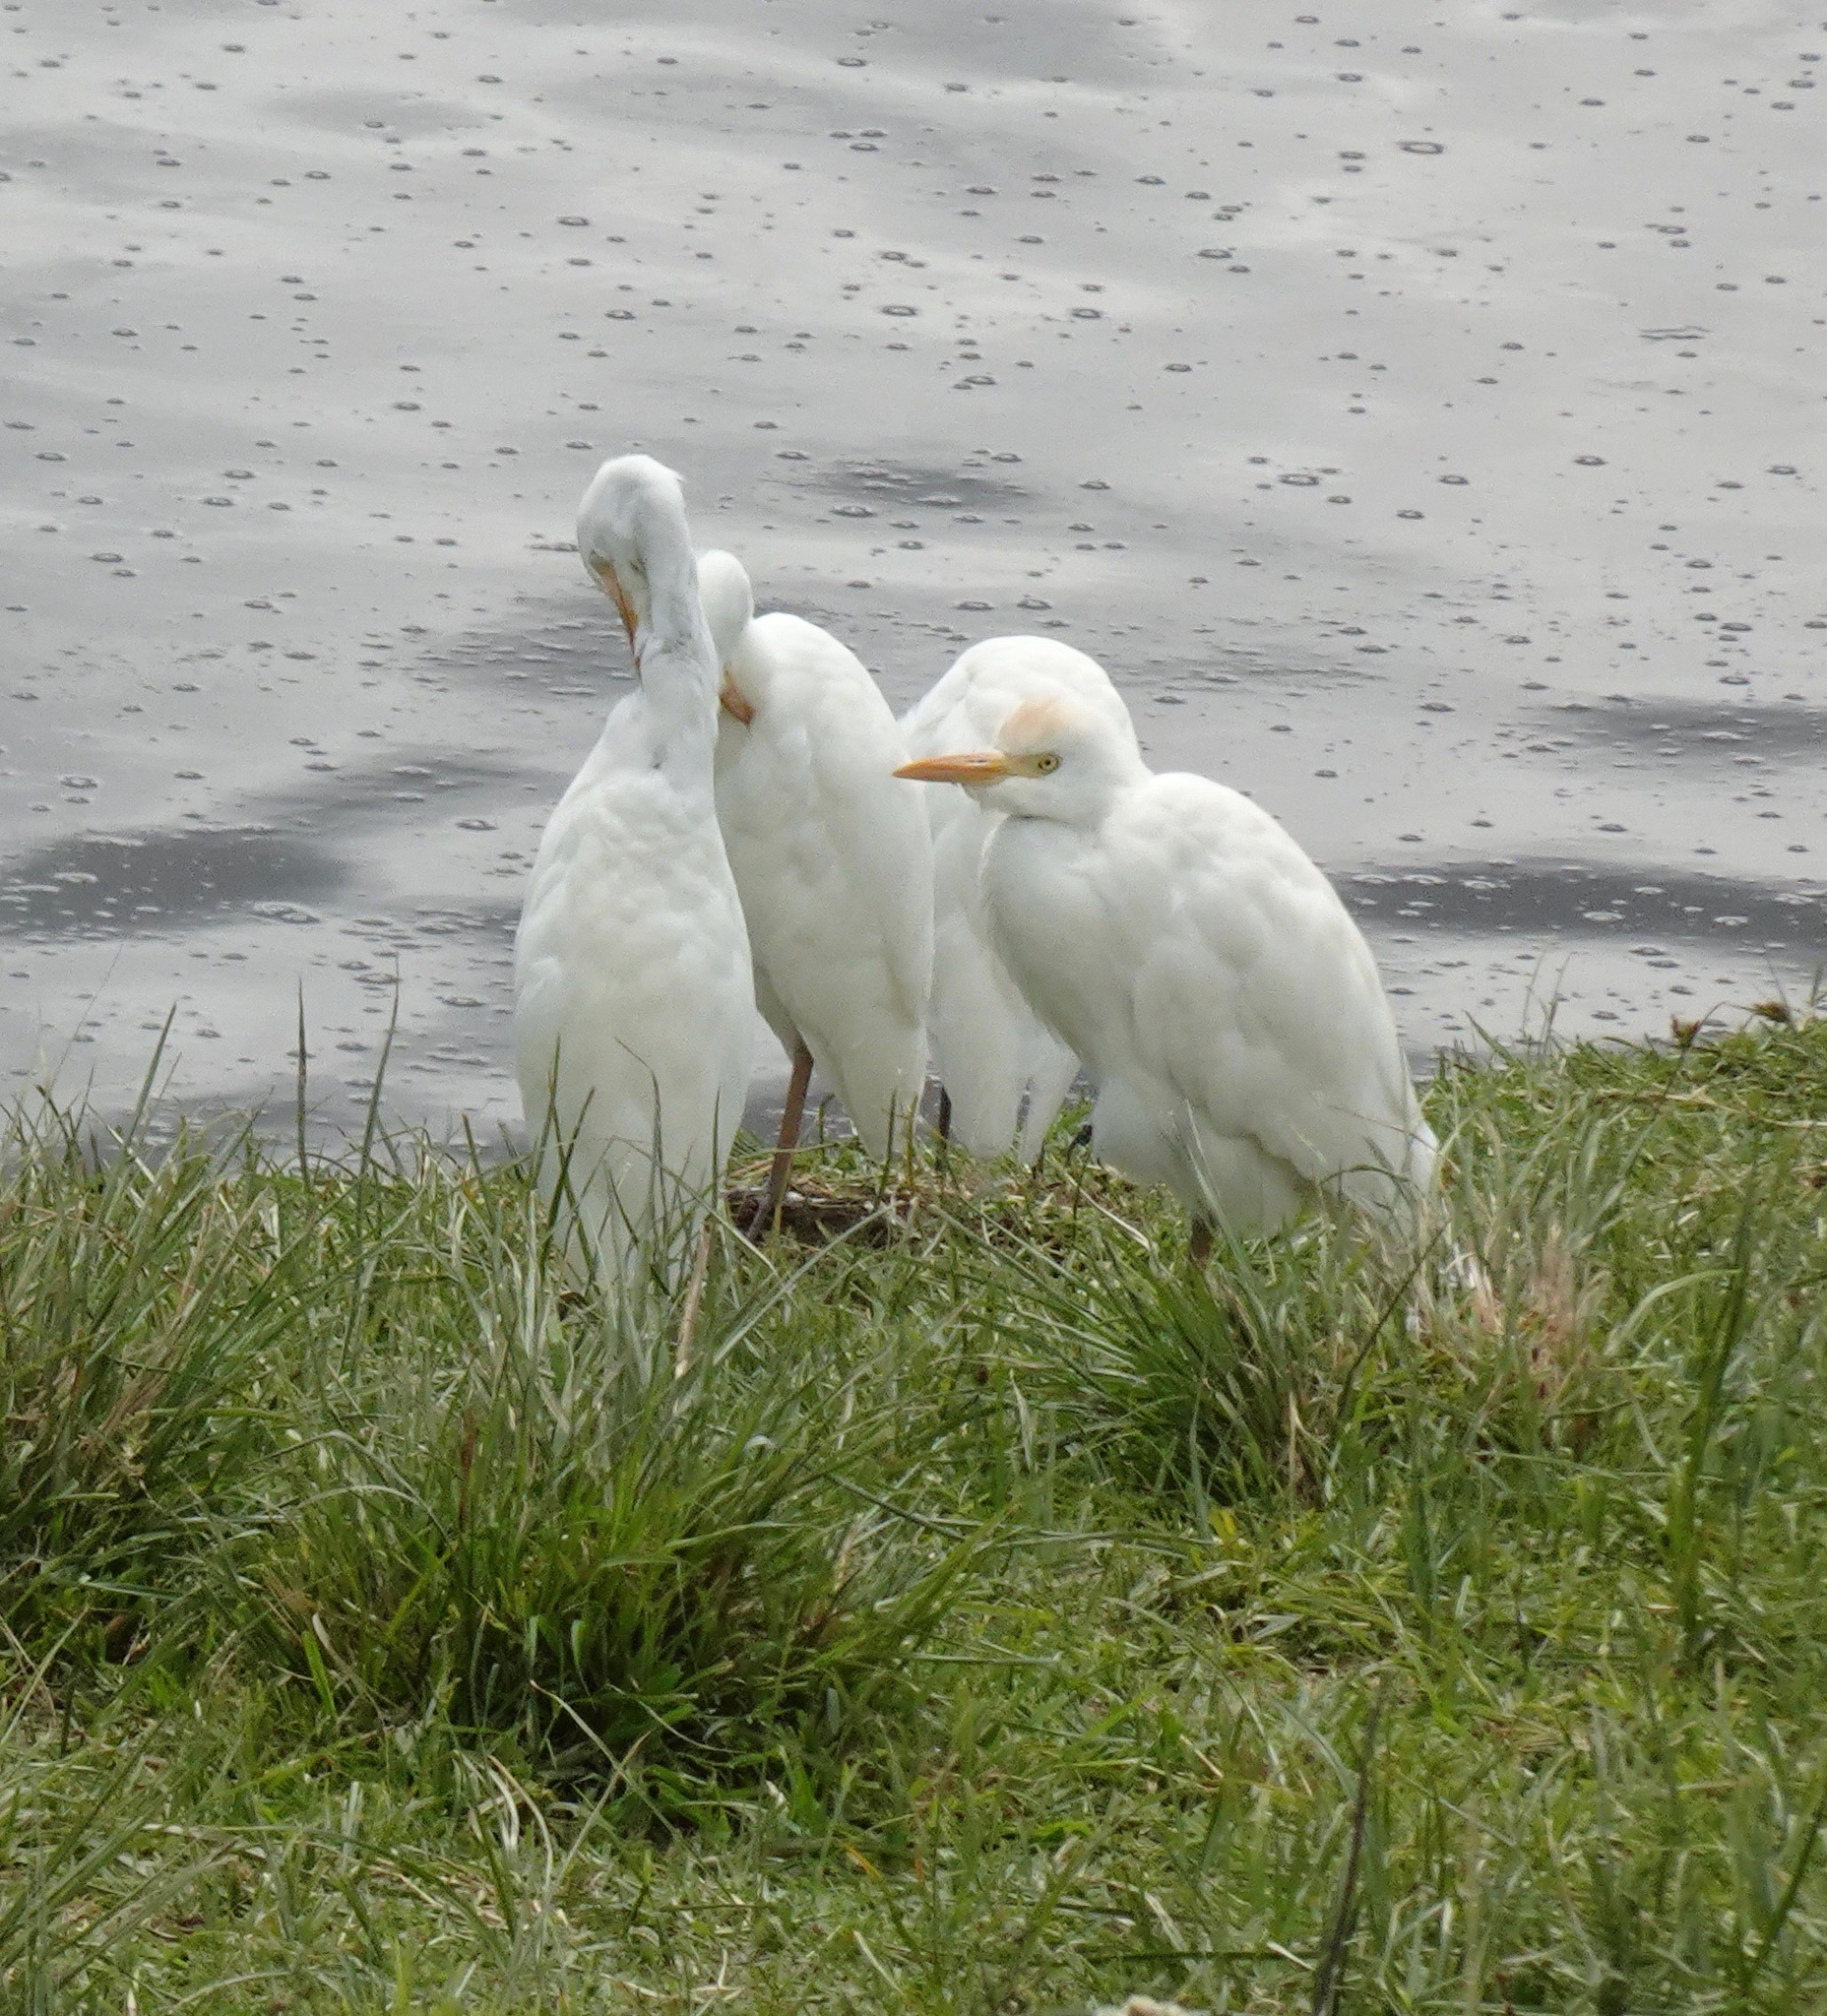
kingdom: Animalia
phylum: Chordata
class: Aves
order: Pelecaniformes
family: Ardeidae
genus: Bubulcus
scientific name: Bubulcus ibis
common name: Cattle egret
